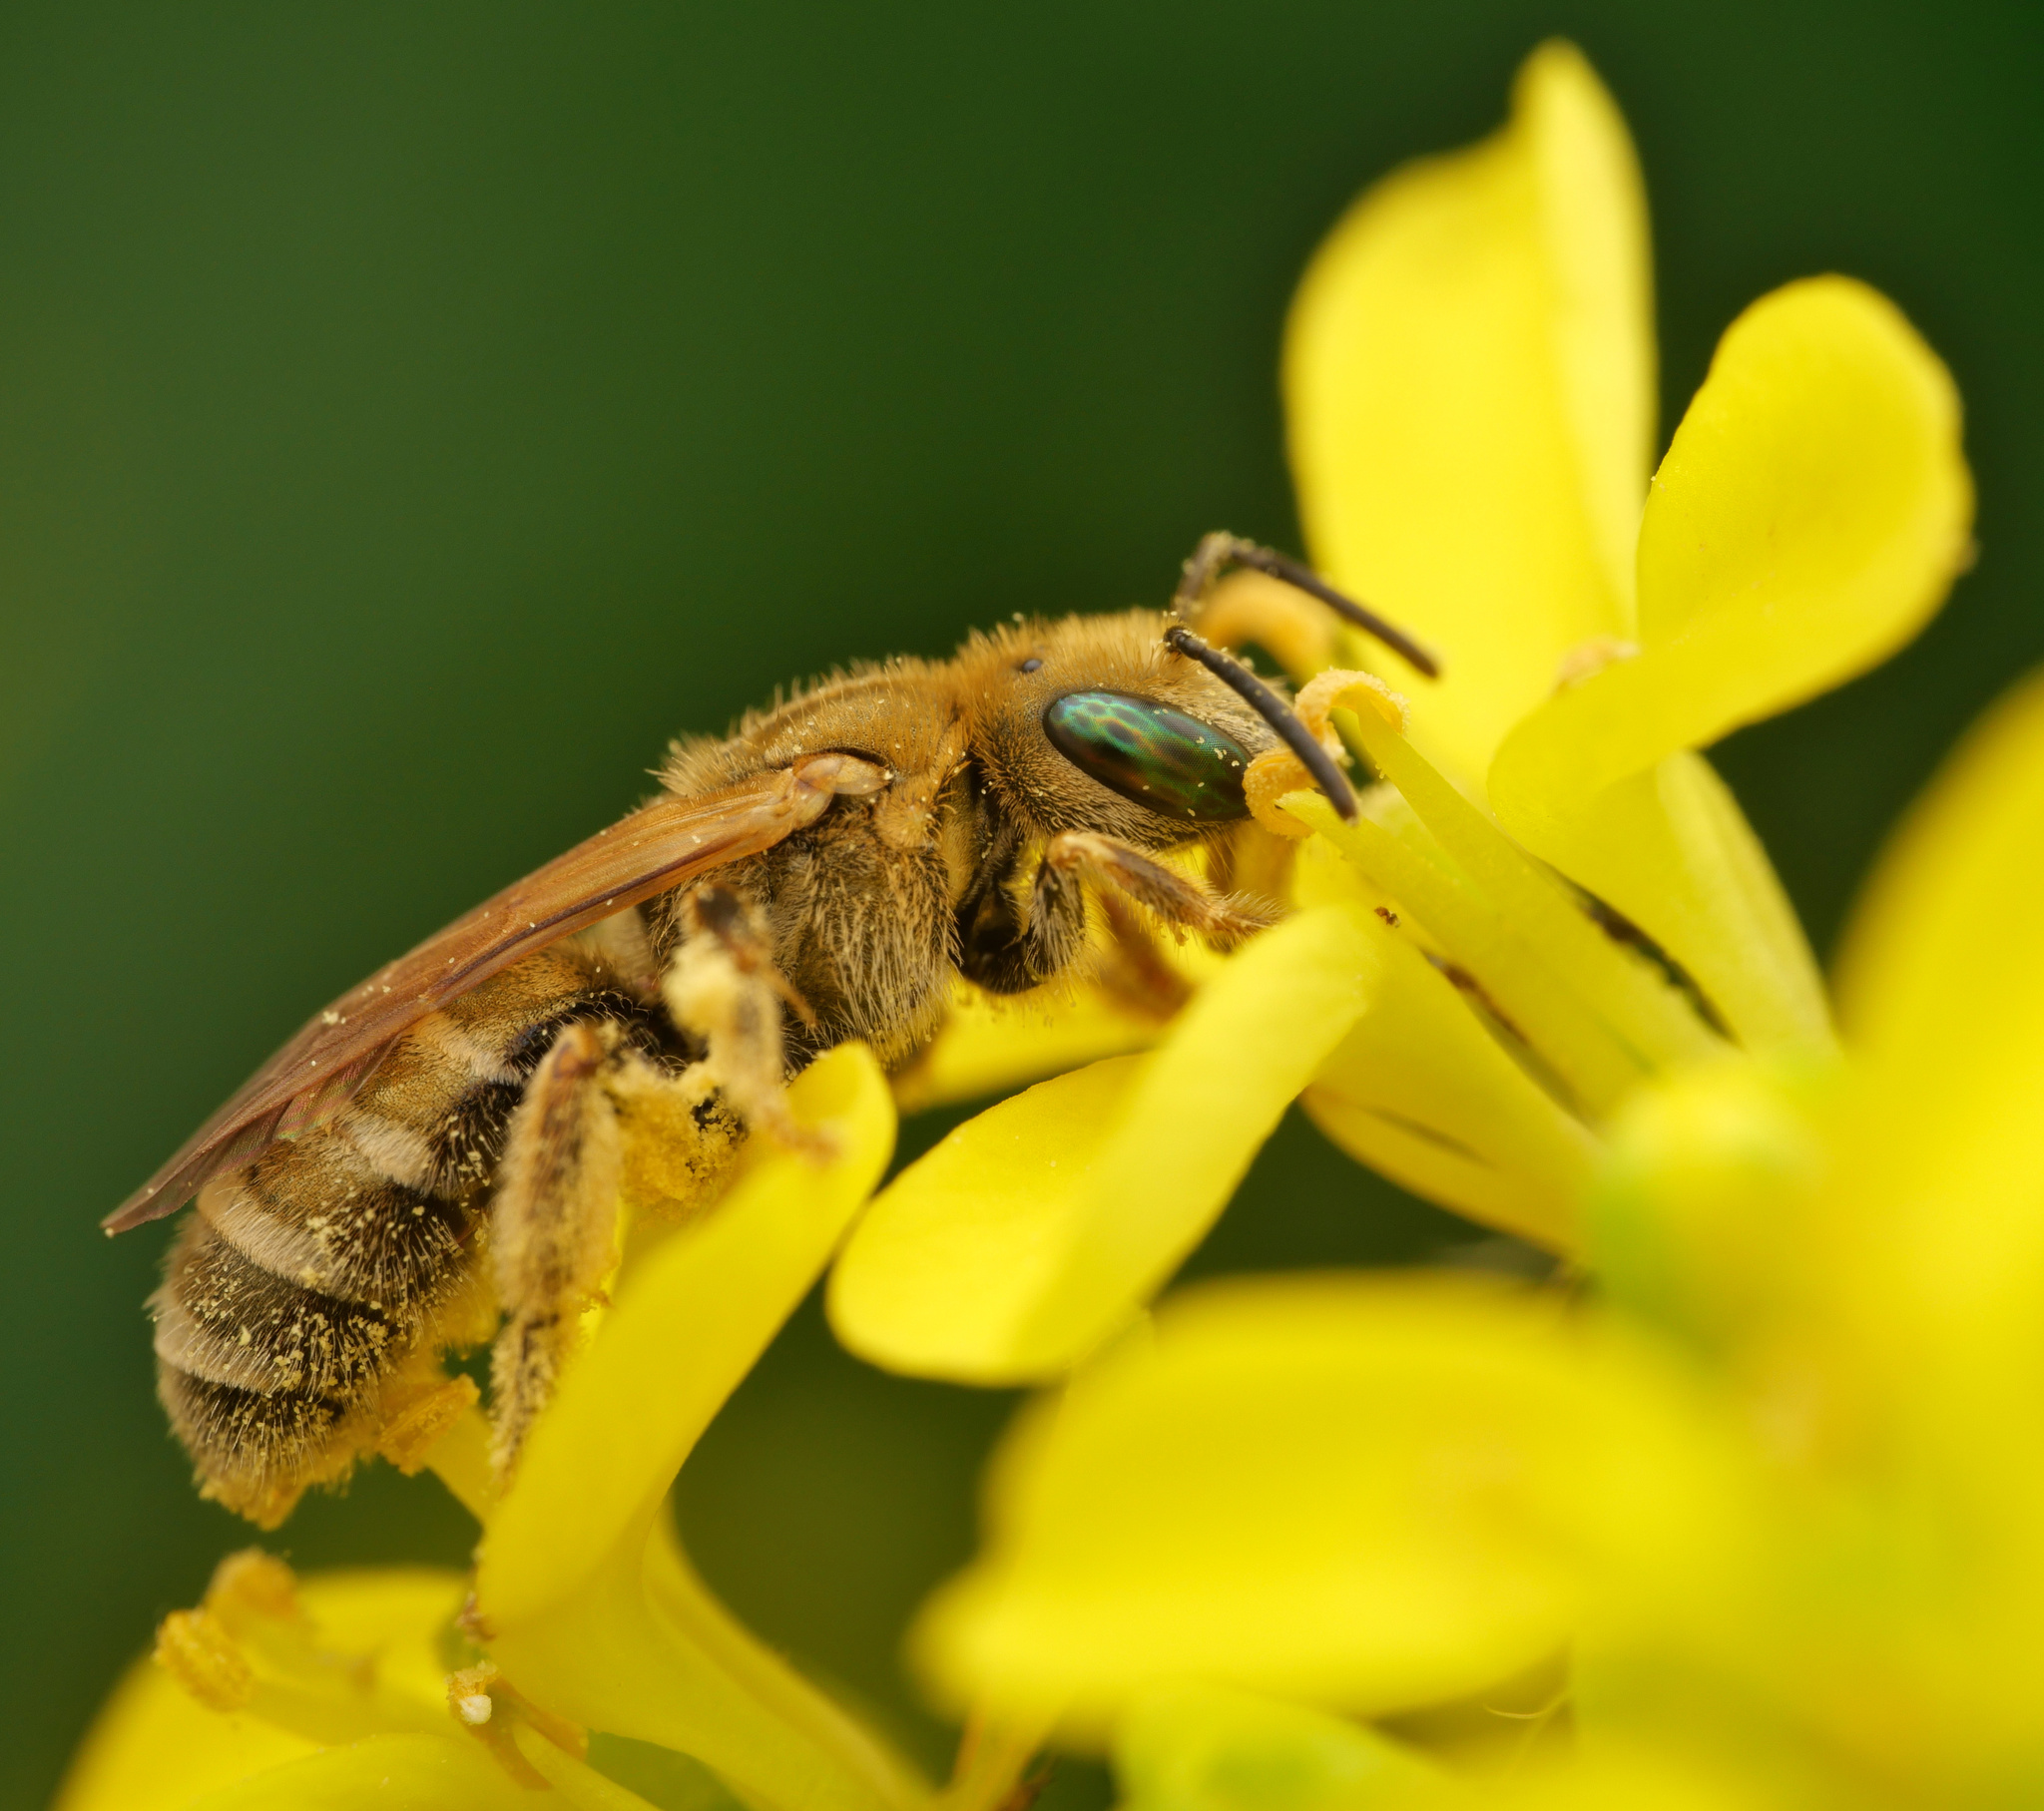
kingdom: Animalia
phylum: Arthropoda
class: Insecta
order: Hymenoptera
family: Halictidae
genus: Halictus
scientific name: Halictus subauratus
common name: Golden furrow bee
